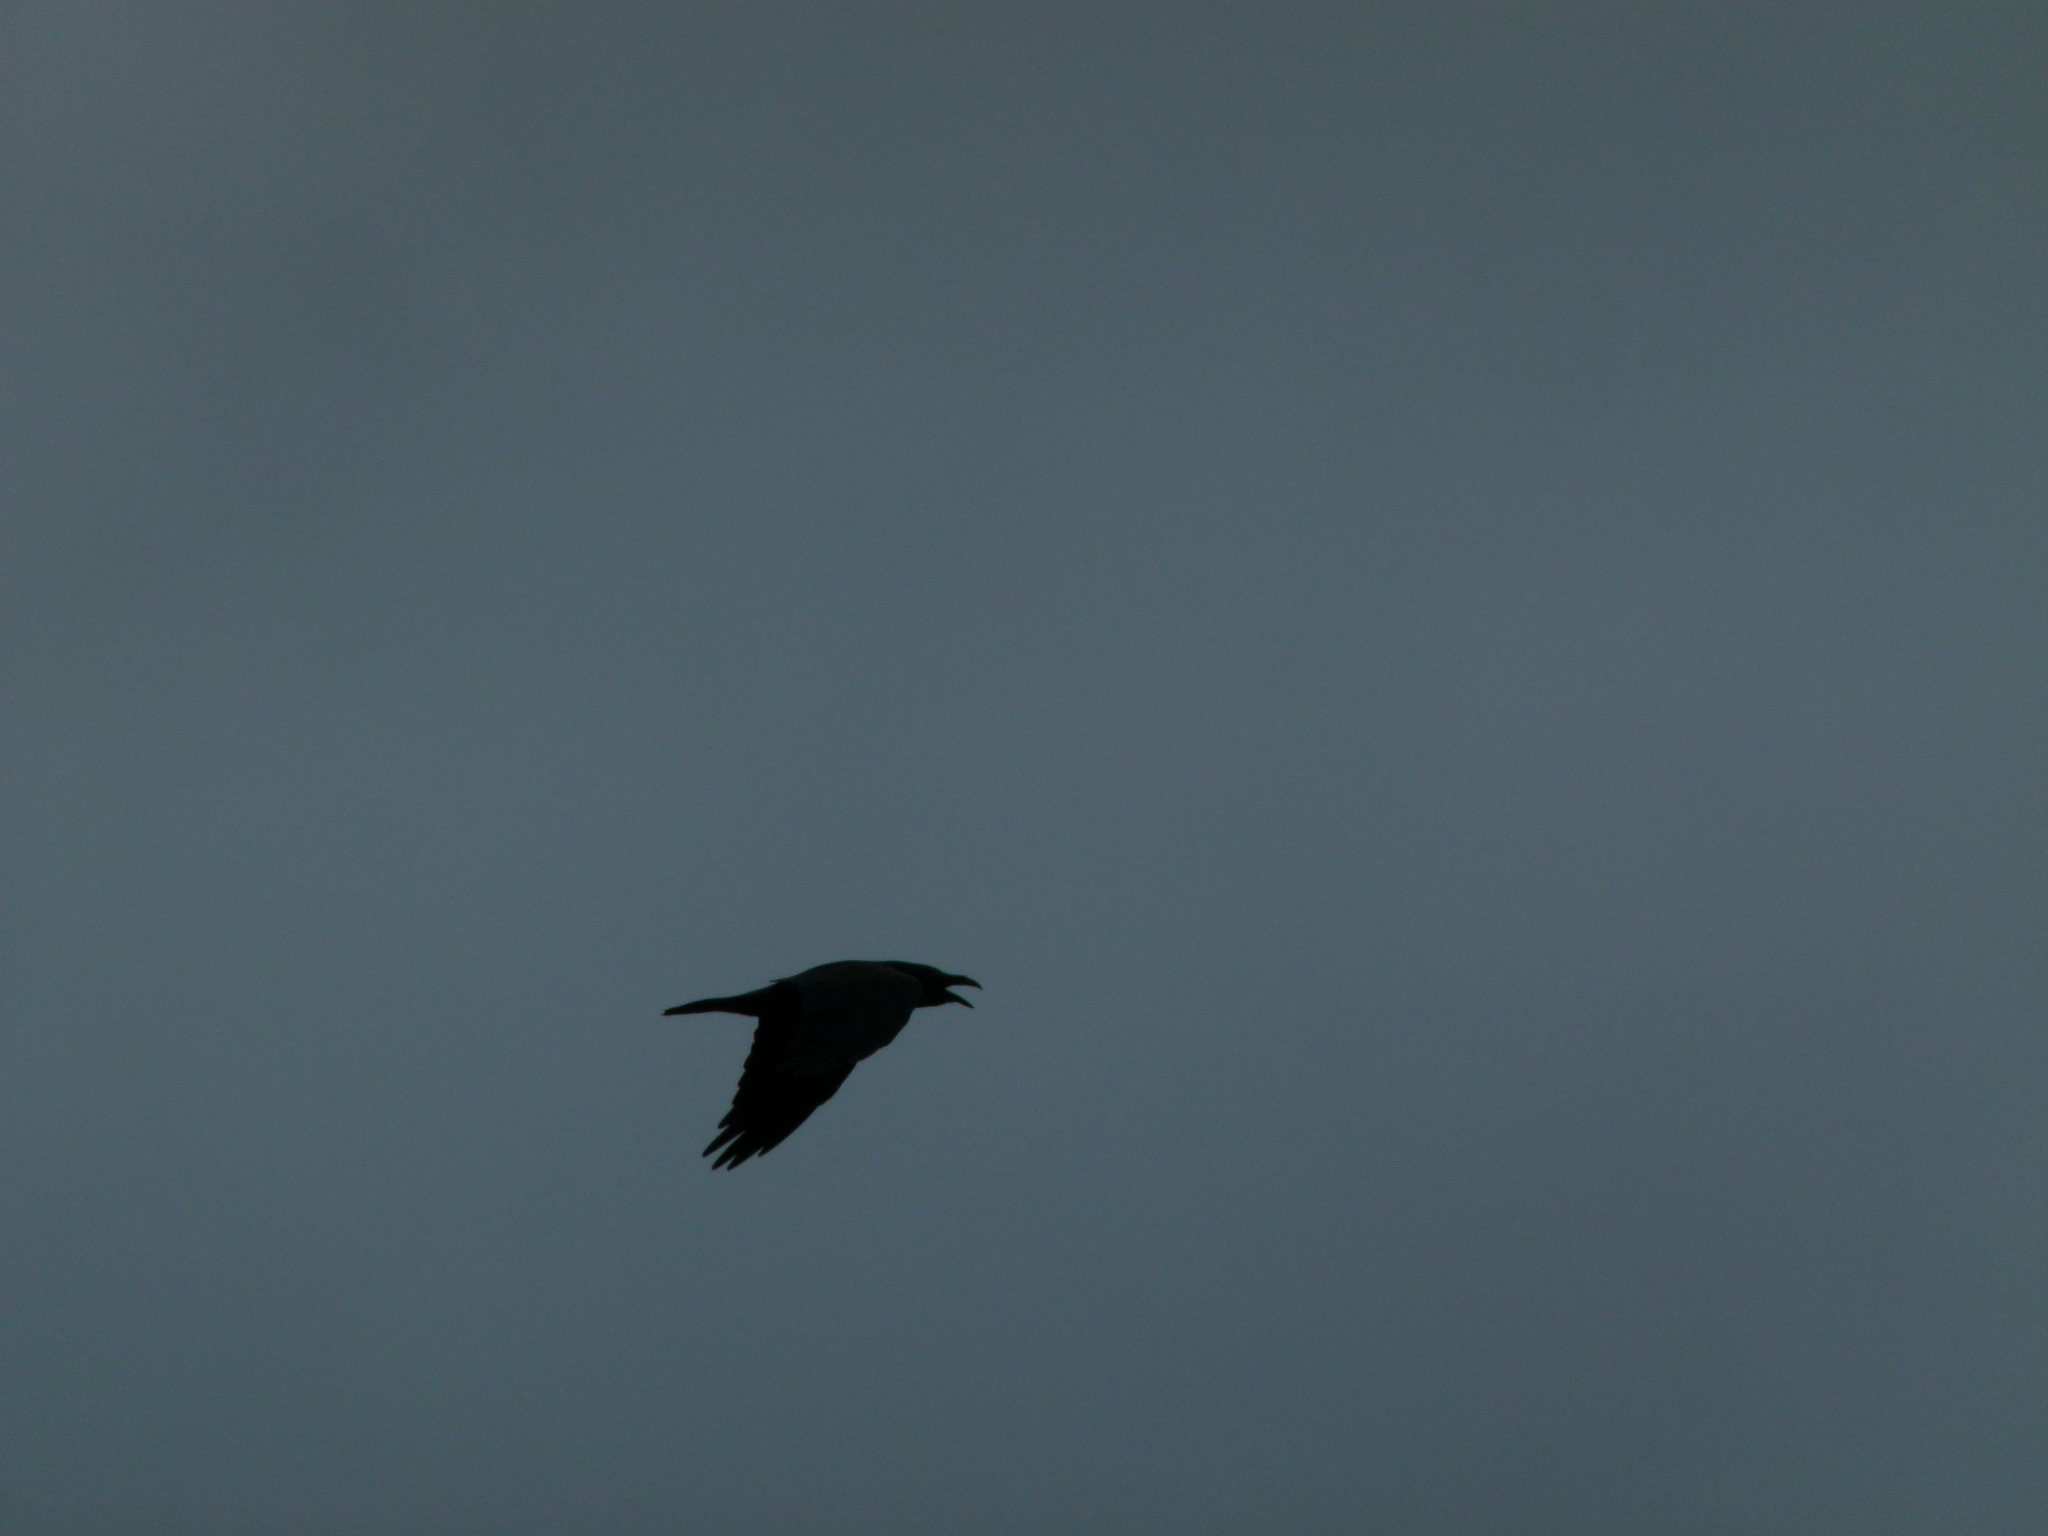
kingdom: Animalia
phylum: Chordata
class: Aves
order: Passeriformes
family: Corvidae
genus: Corvus
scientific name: Corvus corax
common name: Common raven
